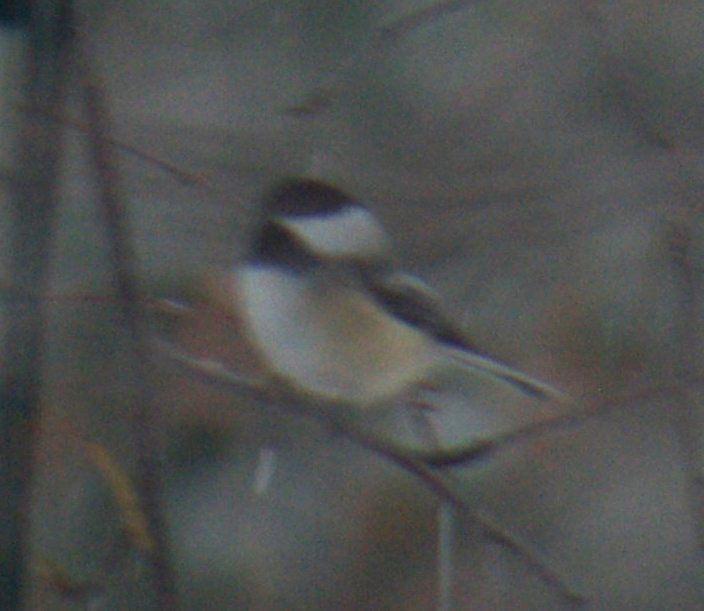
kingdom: Animalia
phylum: Chordata
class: Aves
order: Passeriformes
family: Paridae
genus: Poecile
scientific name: Poecile atricapillus
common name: Black-capped chickadee
